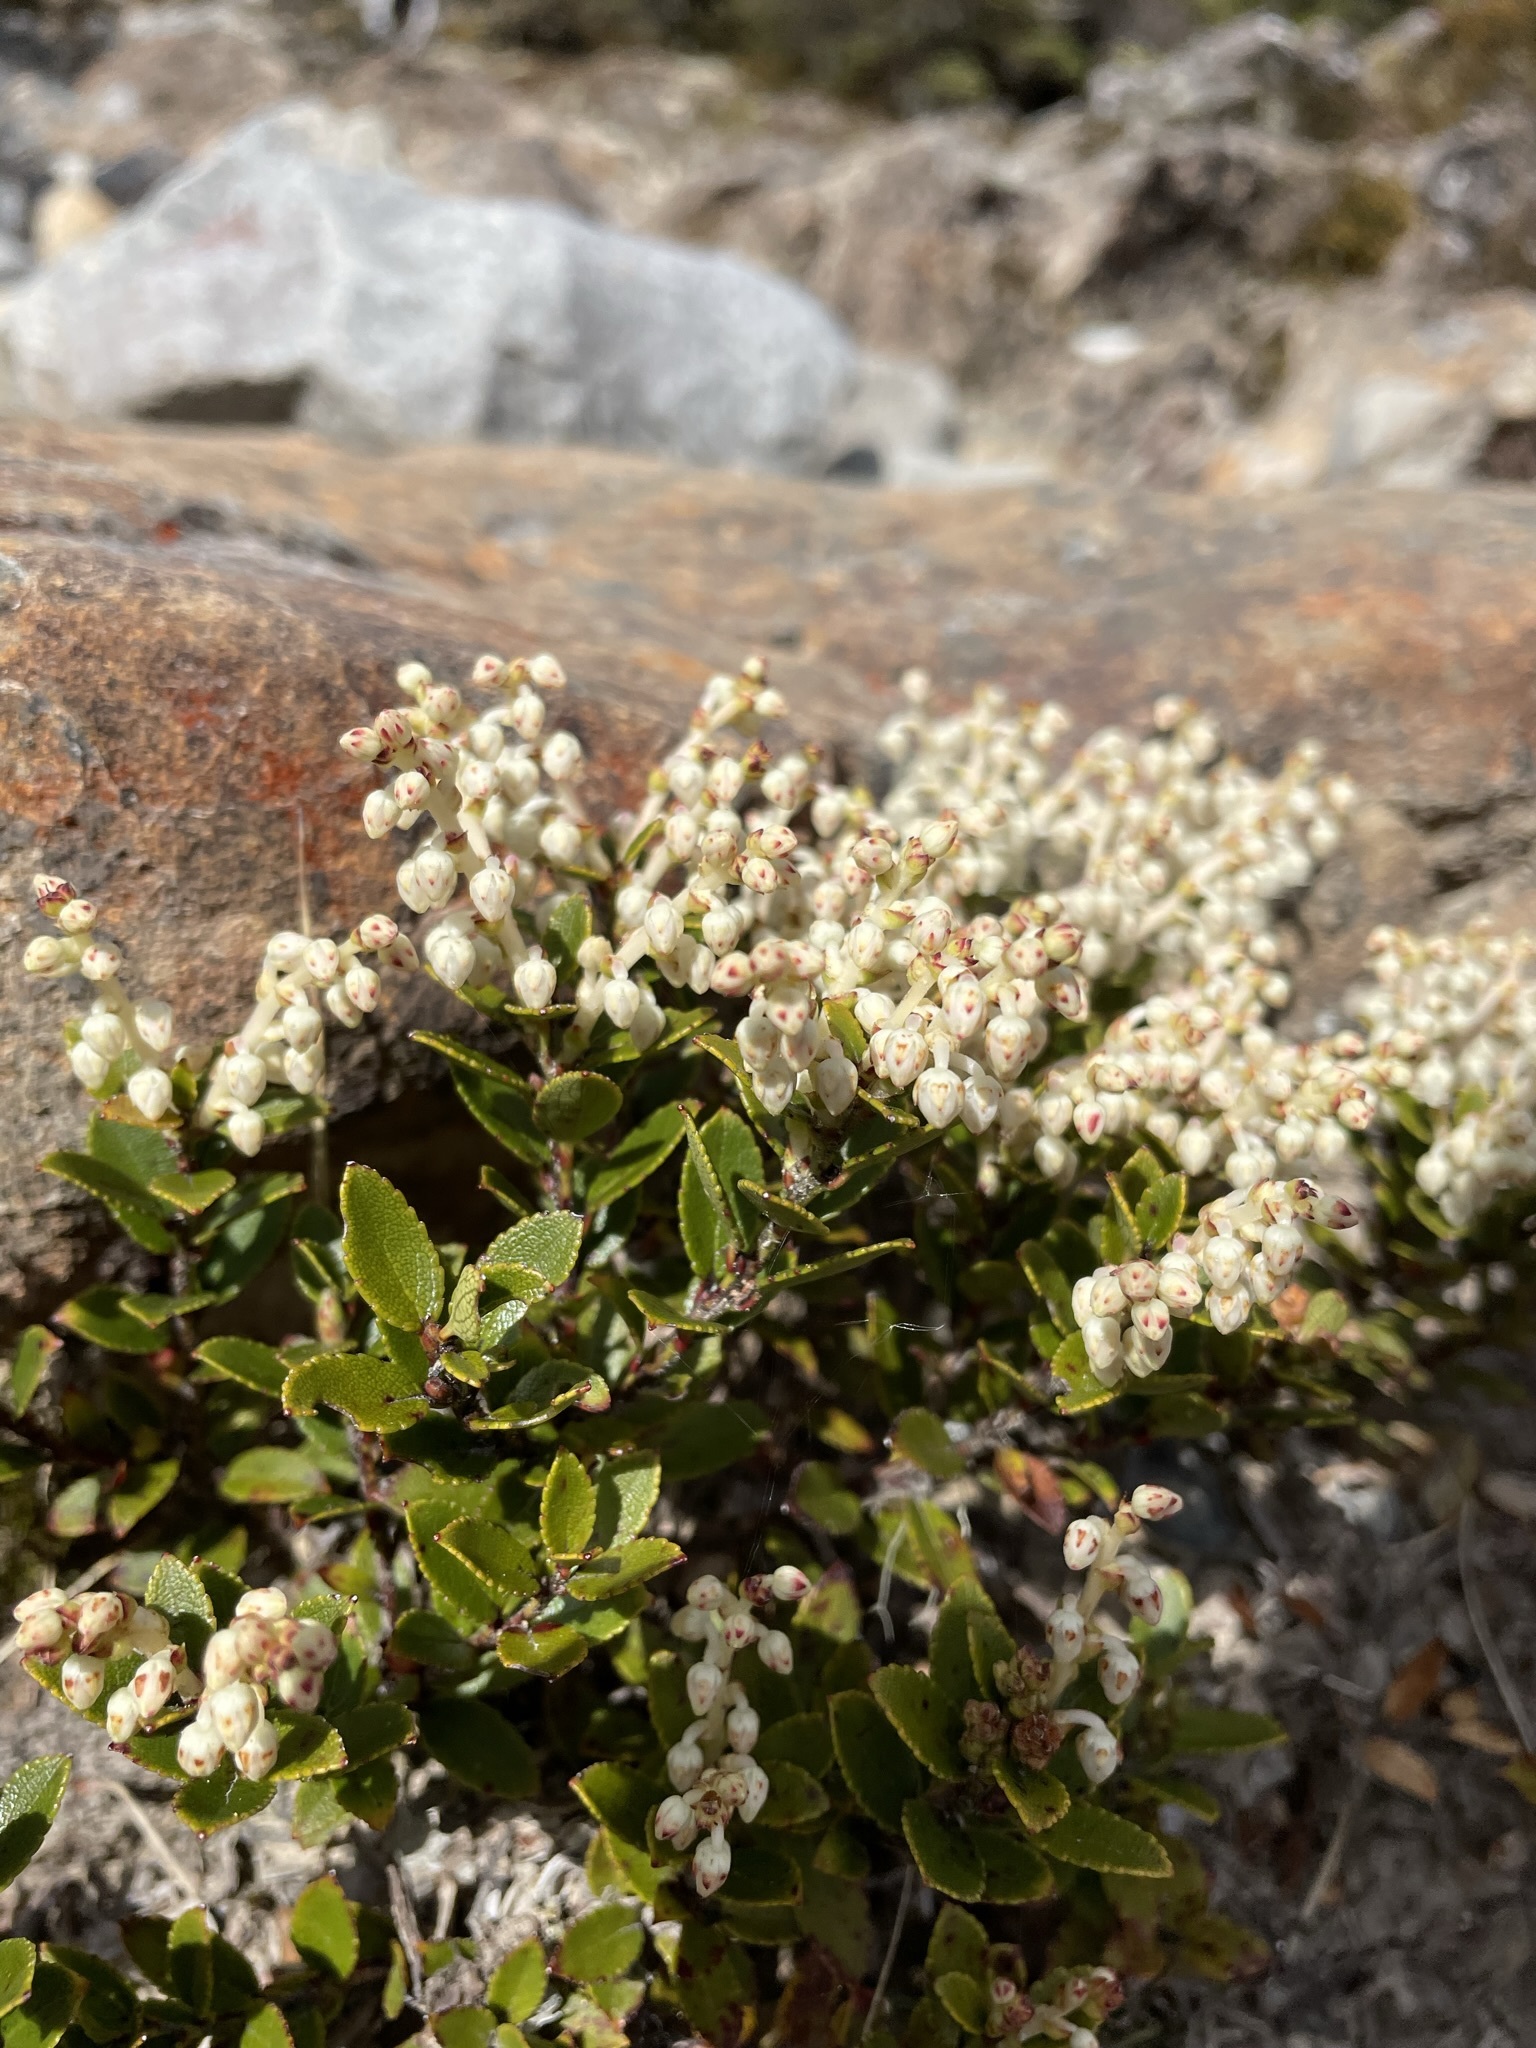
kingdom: Plantae
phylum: Tracheophyta
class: Magnoliopsida
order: Ericales
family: Ericaceae
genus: Gaultheria
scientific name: Gaultheria crassa
